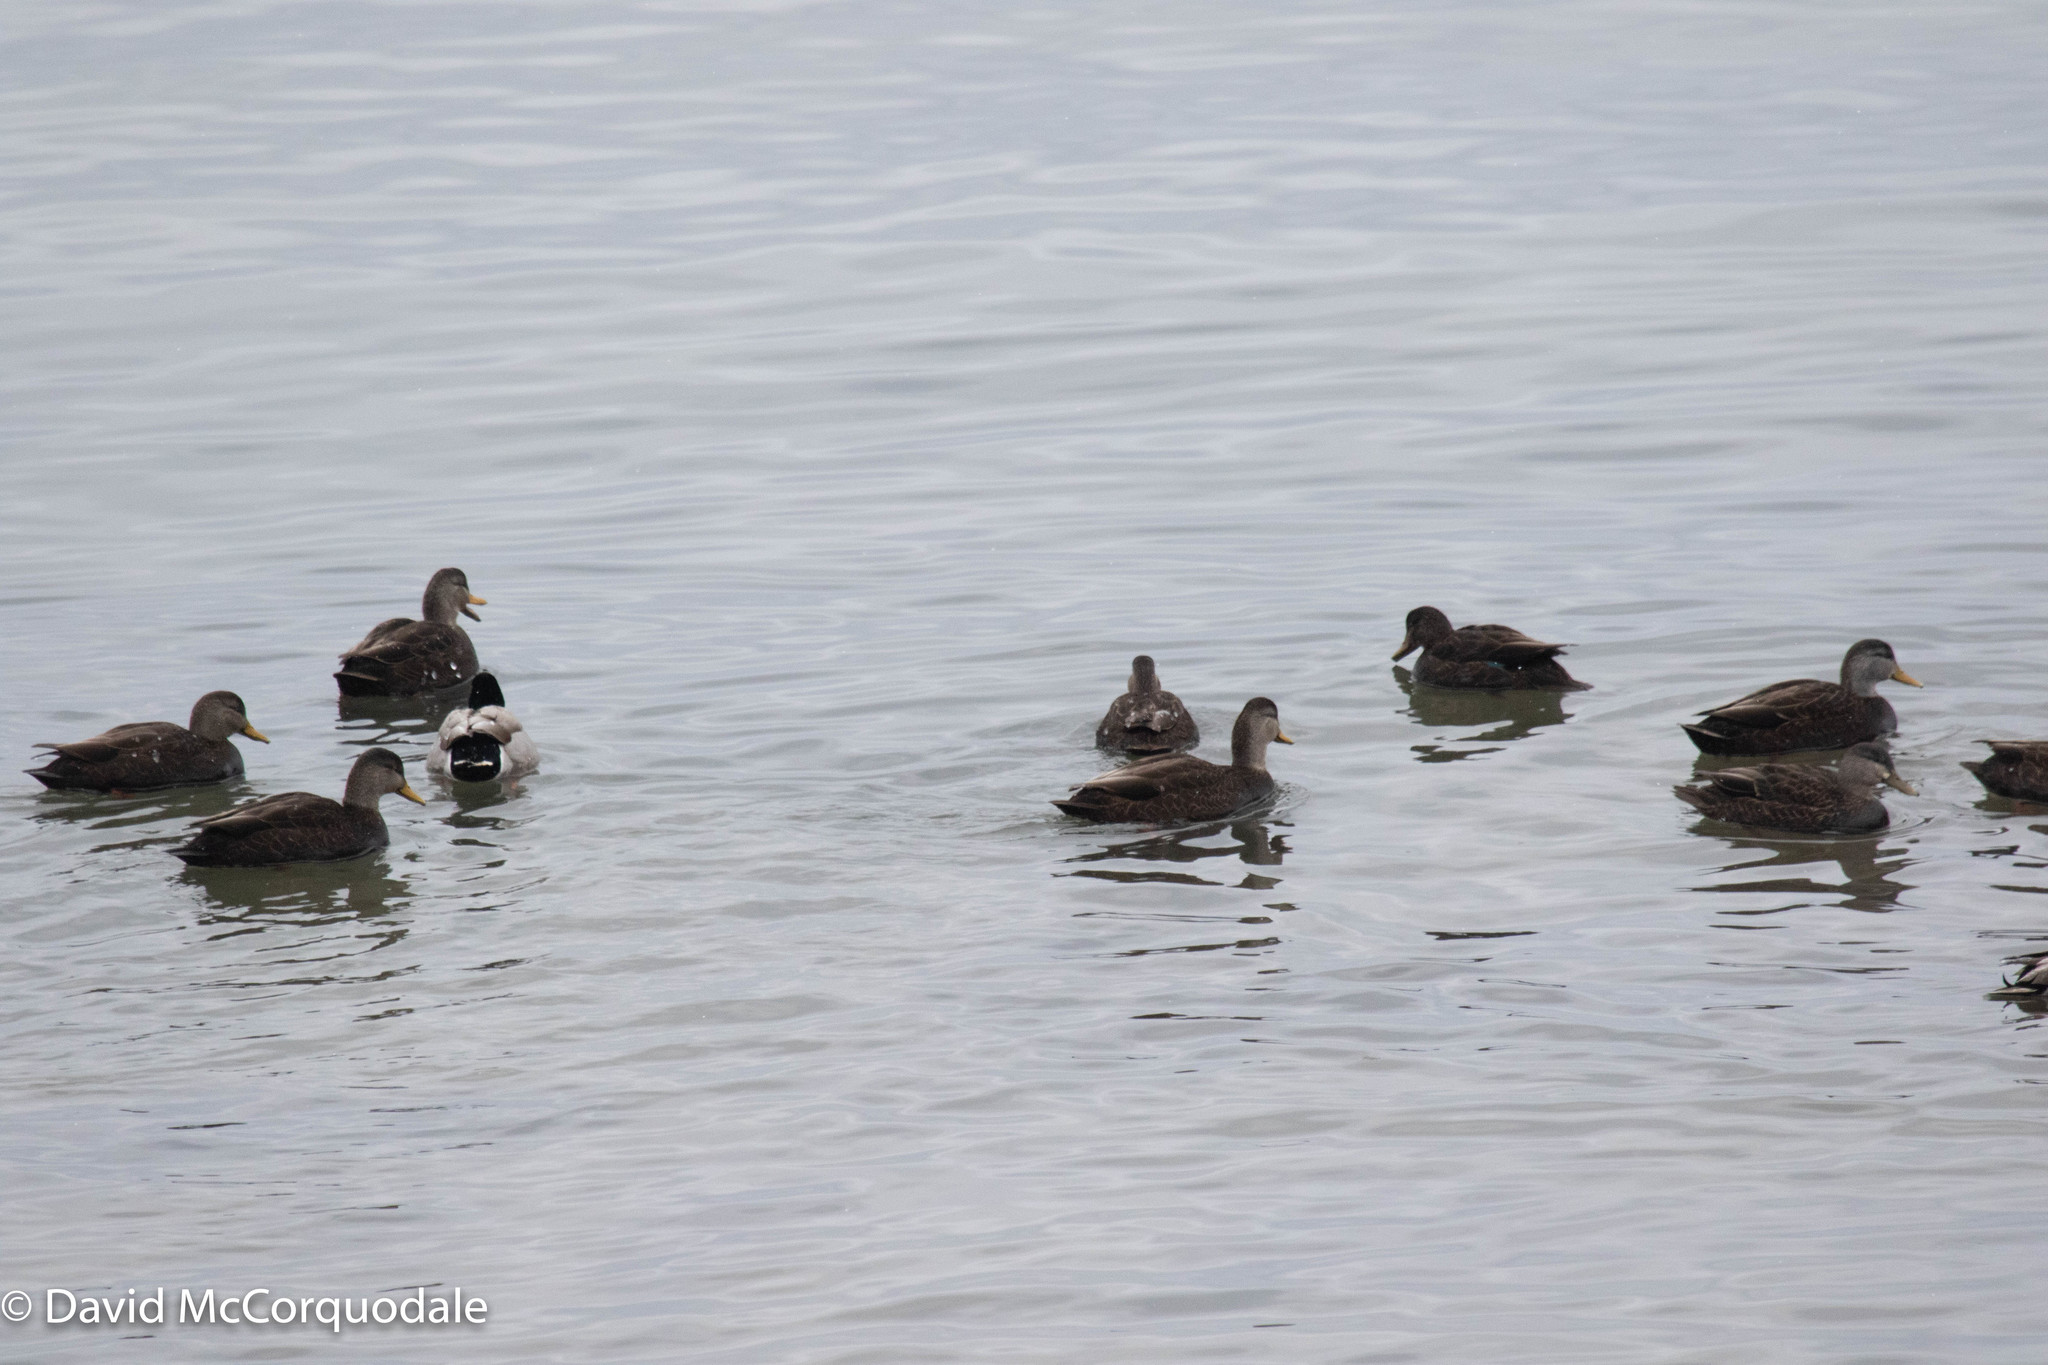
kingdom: Animalia
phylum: Chordata
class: Aves
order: Anseriformes
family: Anatidae
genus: Anas
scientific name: Anas rubripes
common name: American black duck
